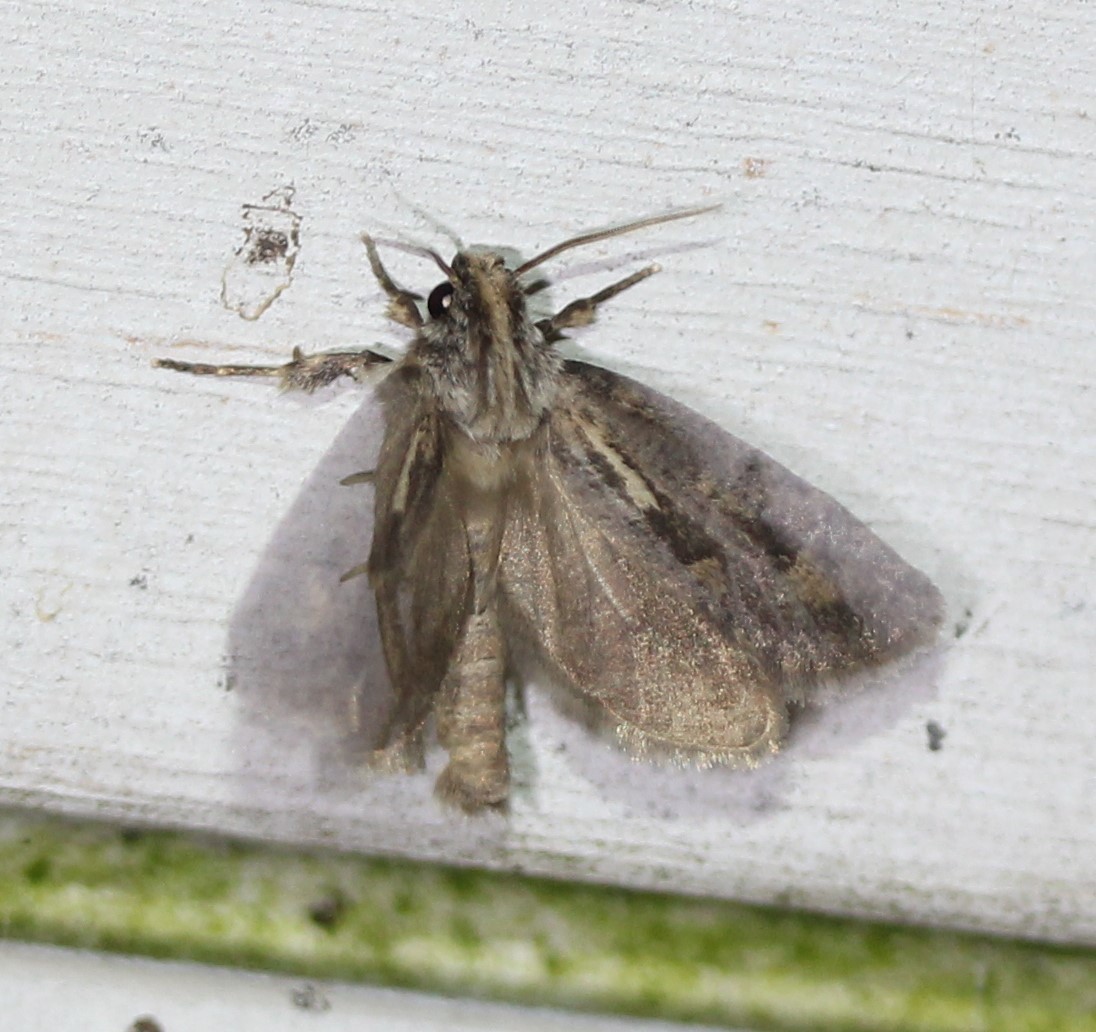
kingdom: Animalia
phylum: Arthropoda
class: Insecta
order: Lepidoptera
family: Tineidae
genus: Acrolophus
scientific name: Acrolophus popeanella
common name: Clemens' grass tubeworm moth
